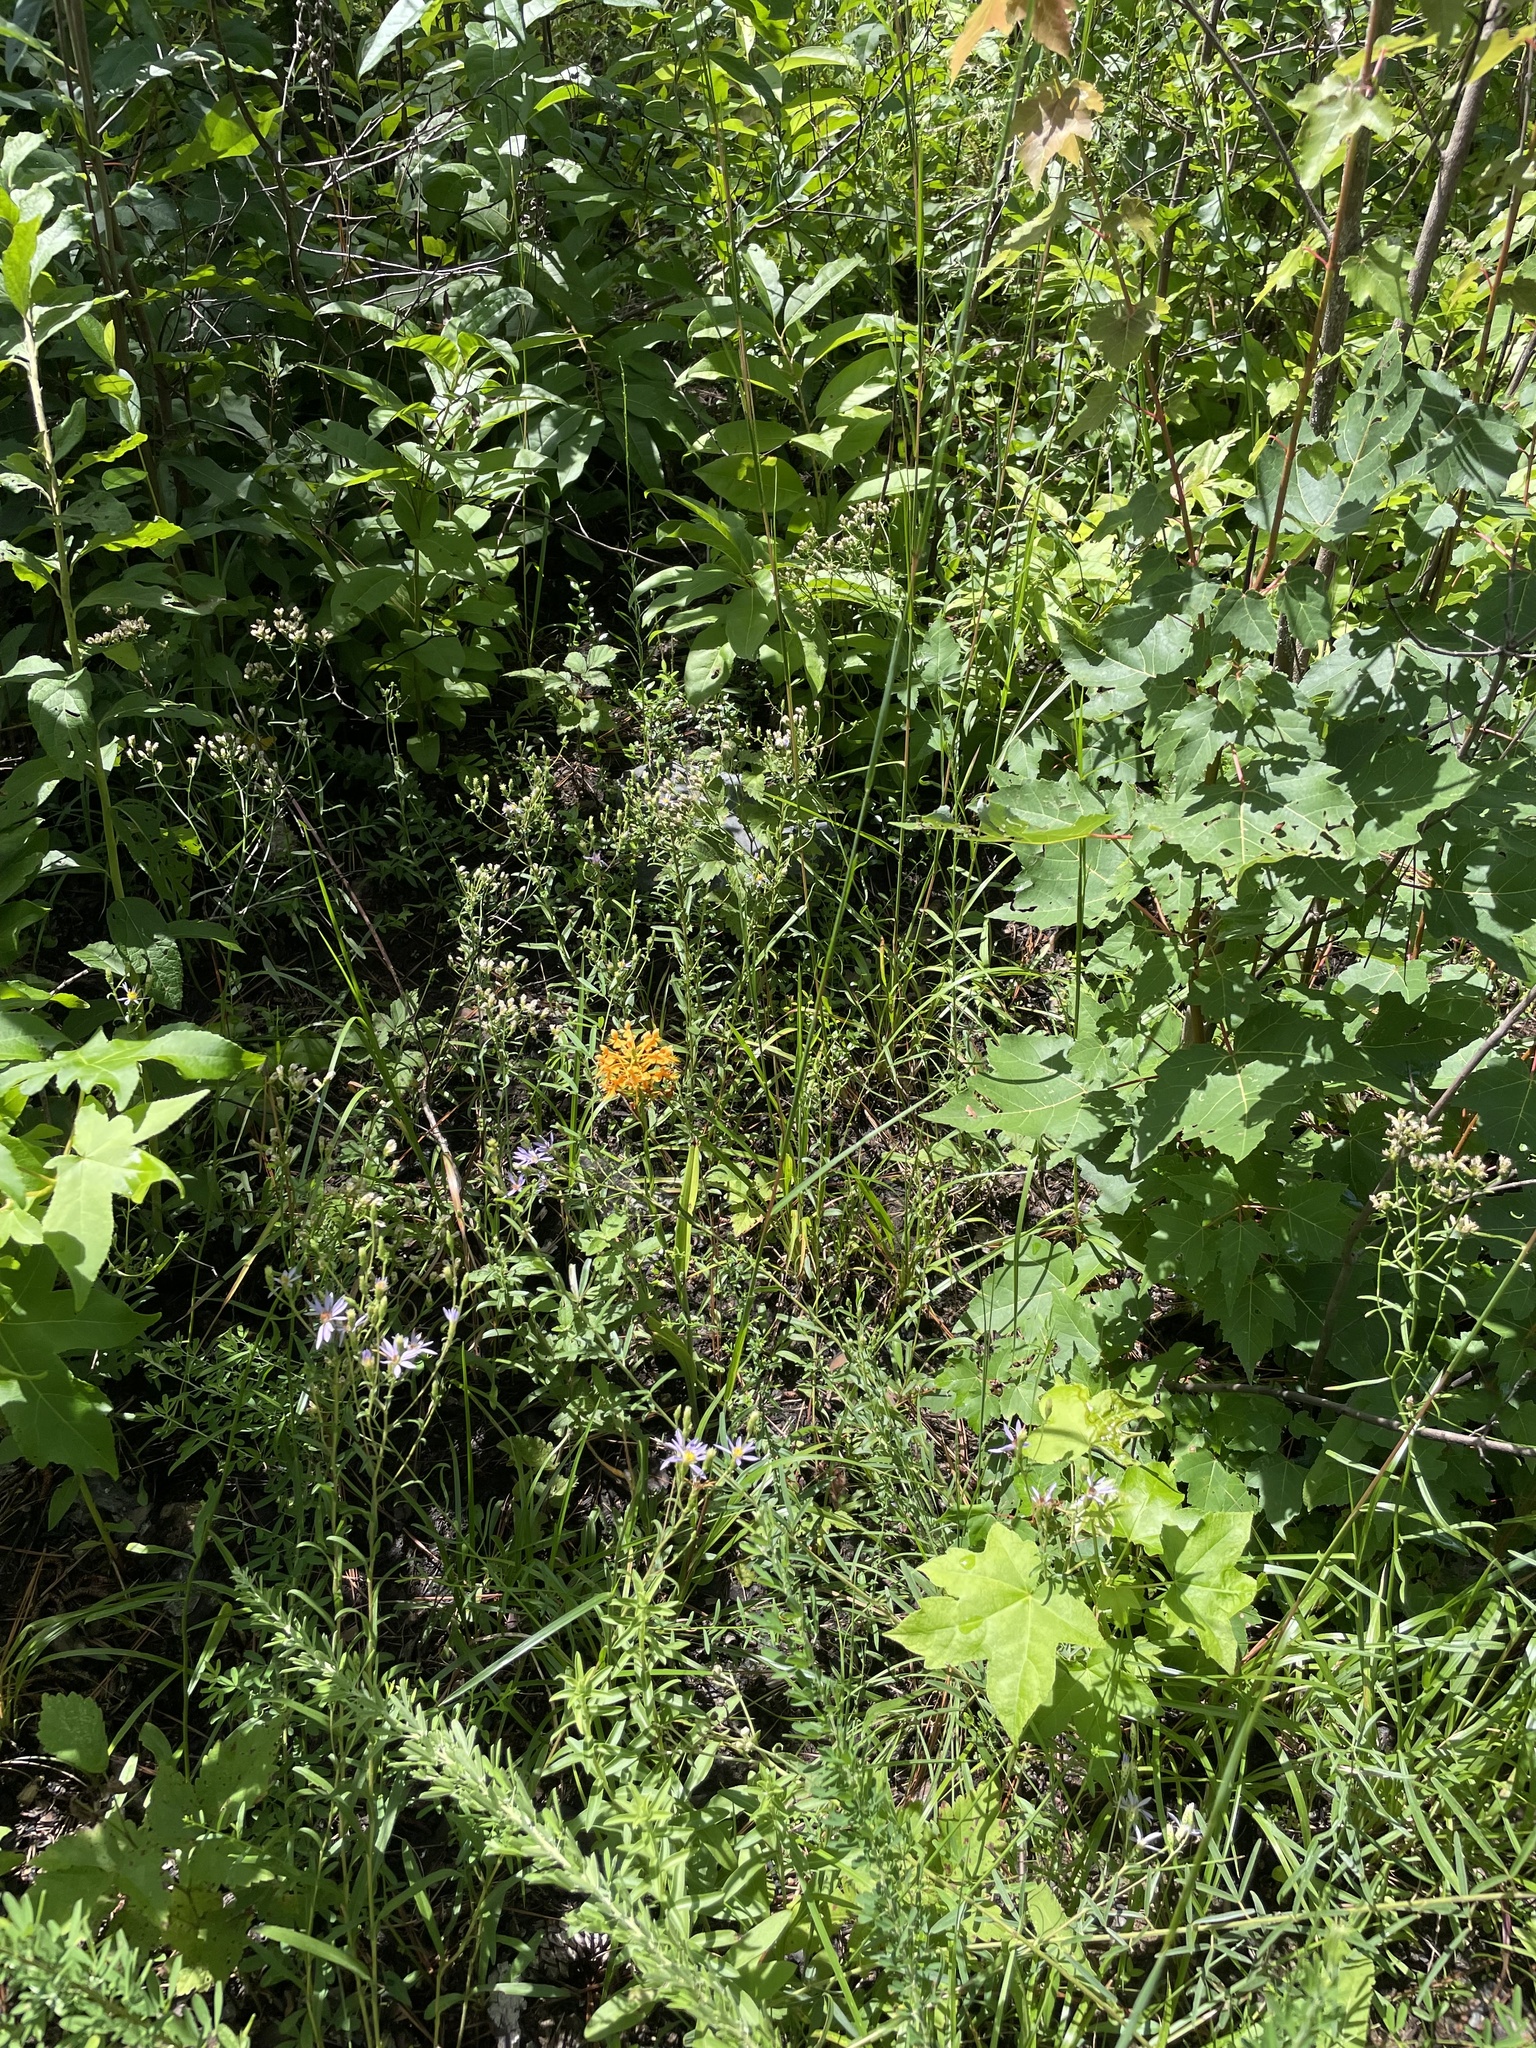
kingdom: Plantae
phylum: Tracheophyta
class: Liliopsida
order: Asparagales
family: Orchidaceae
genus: Platanthera
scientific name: Platanthera ciliaris
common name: Yellow fringed orchid
